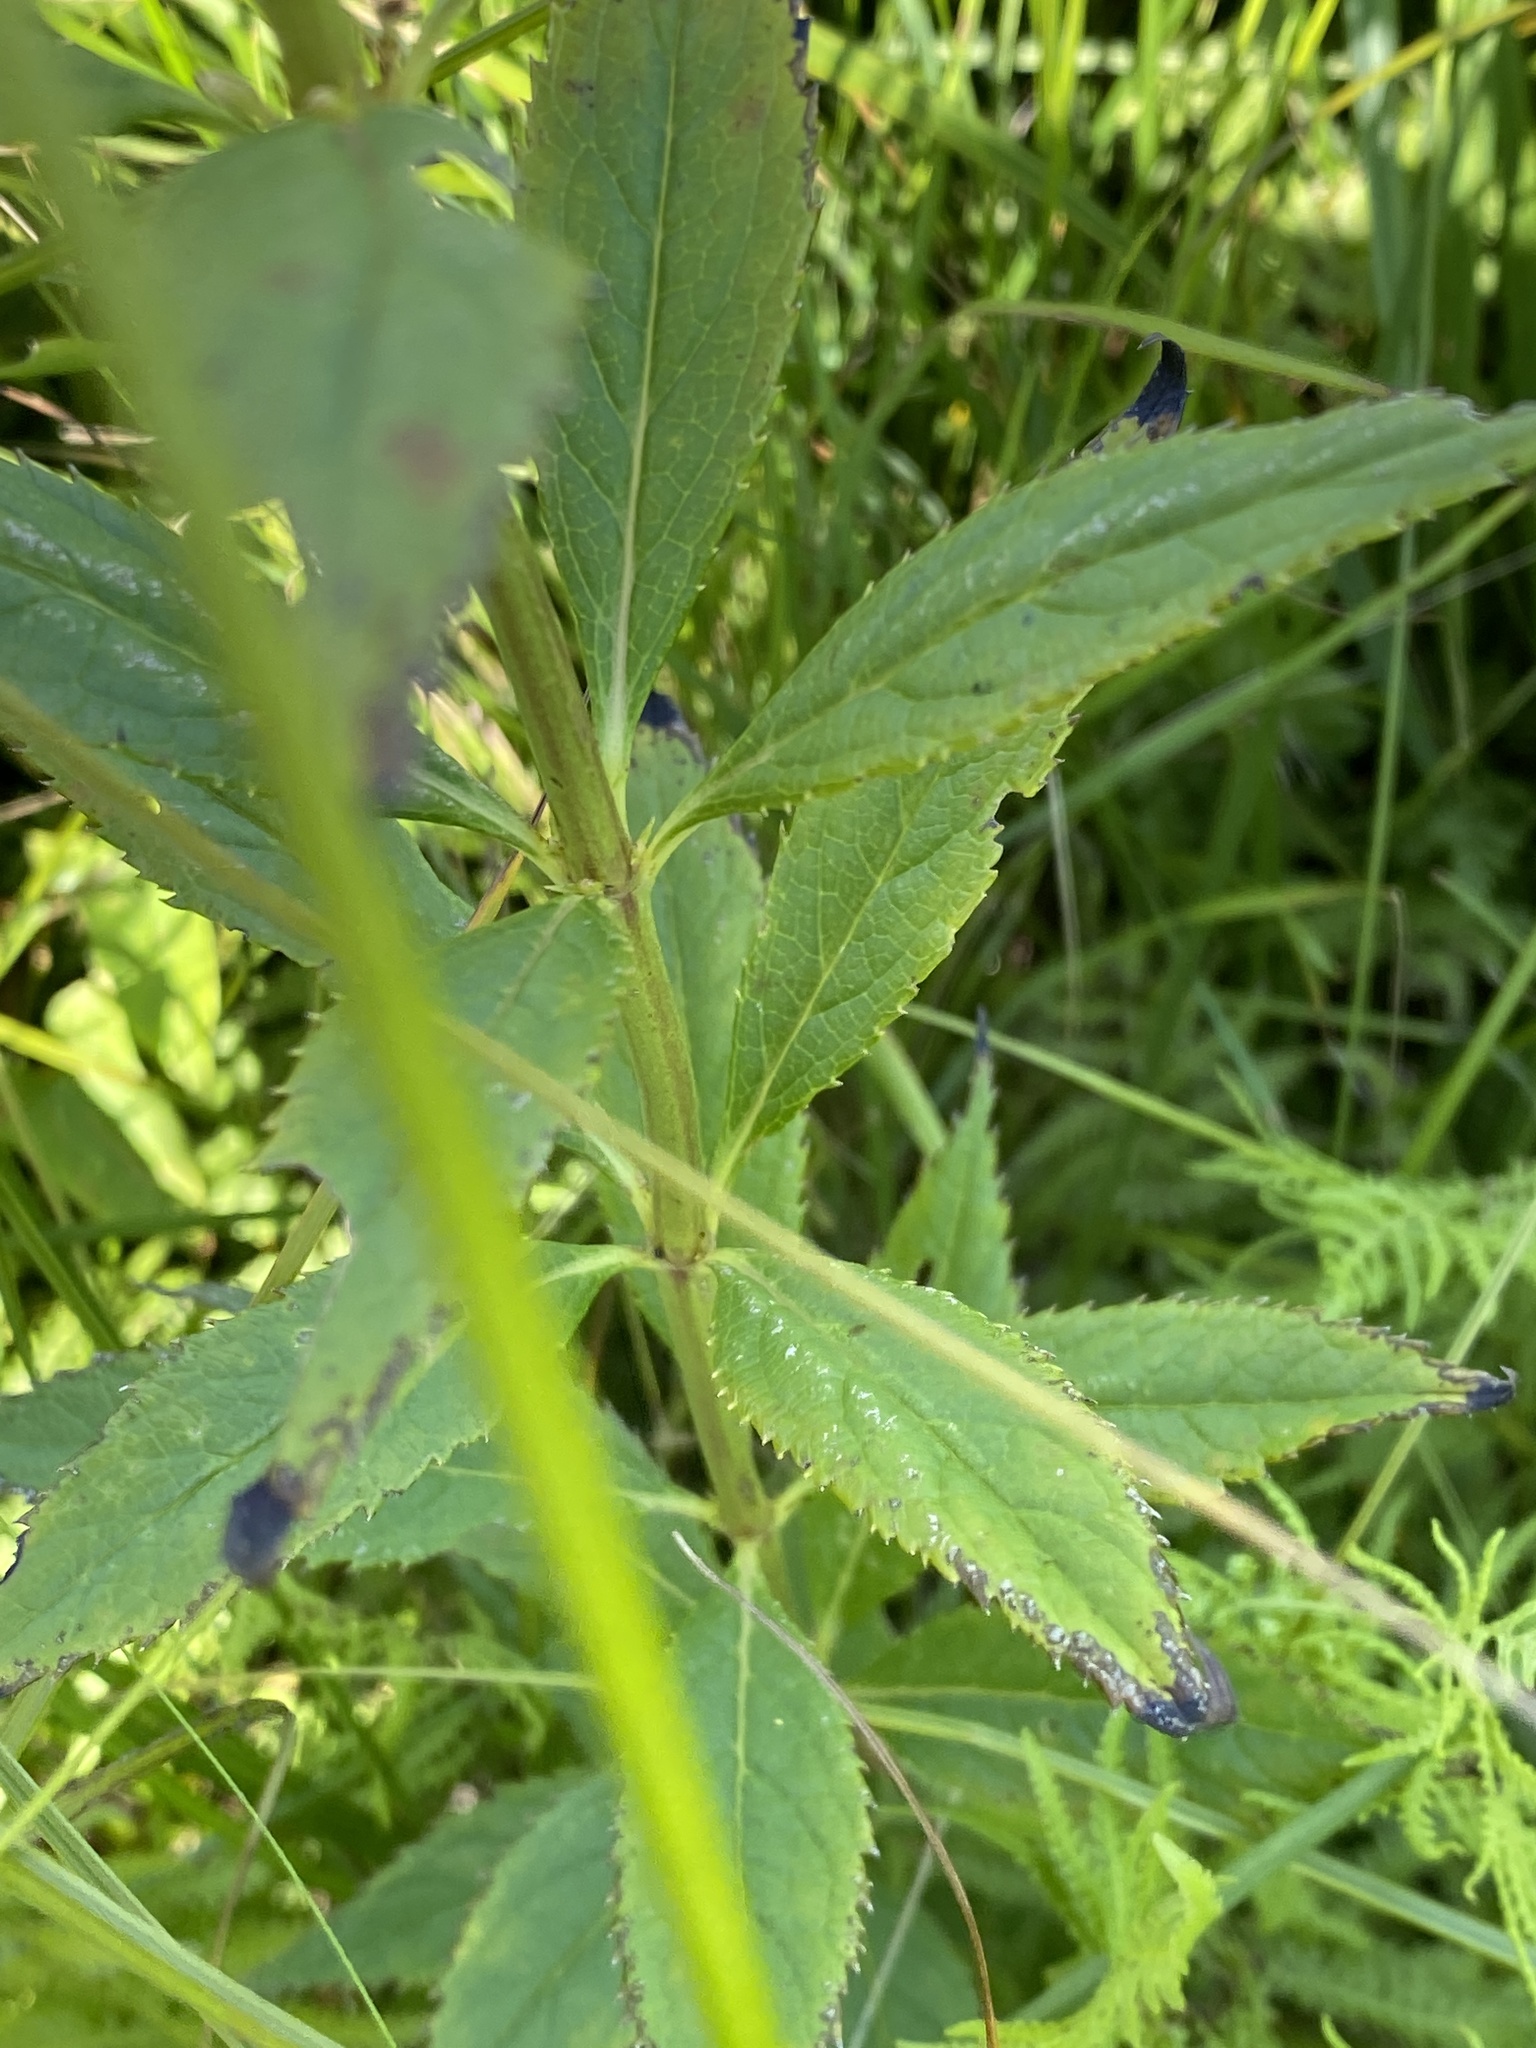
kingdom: Plantae
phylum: Tracheophyta
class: Magnoliopsida
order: Lamiales
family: Plantaginaceae
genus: Veronicastrum
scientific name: Veronicastrum virginicum
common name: Blackroot
